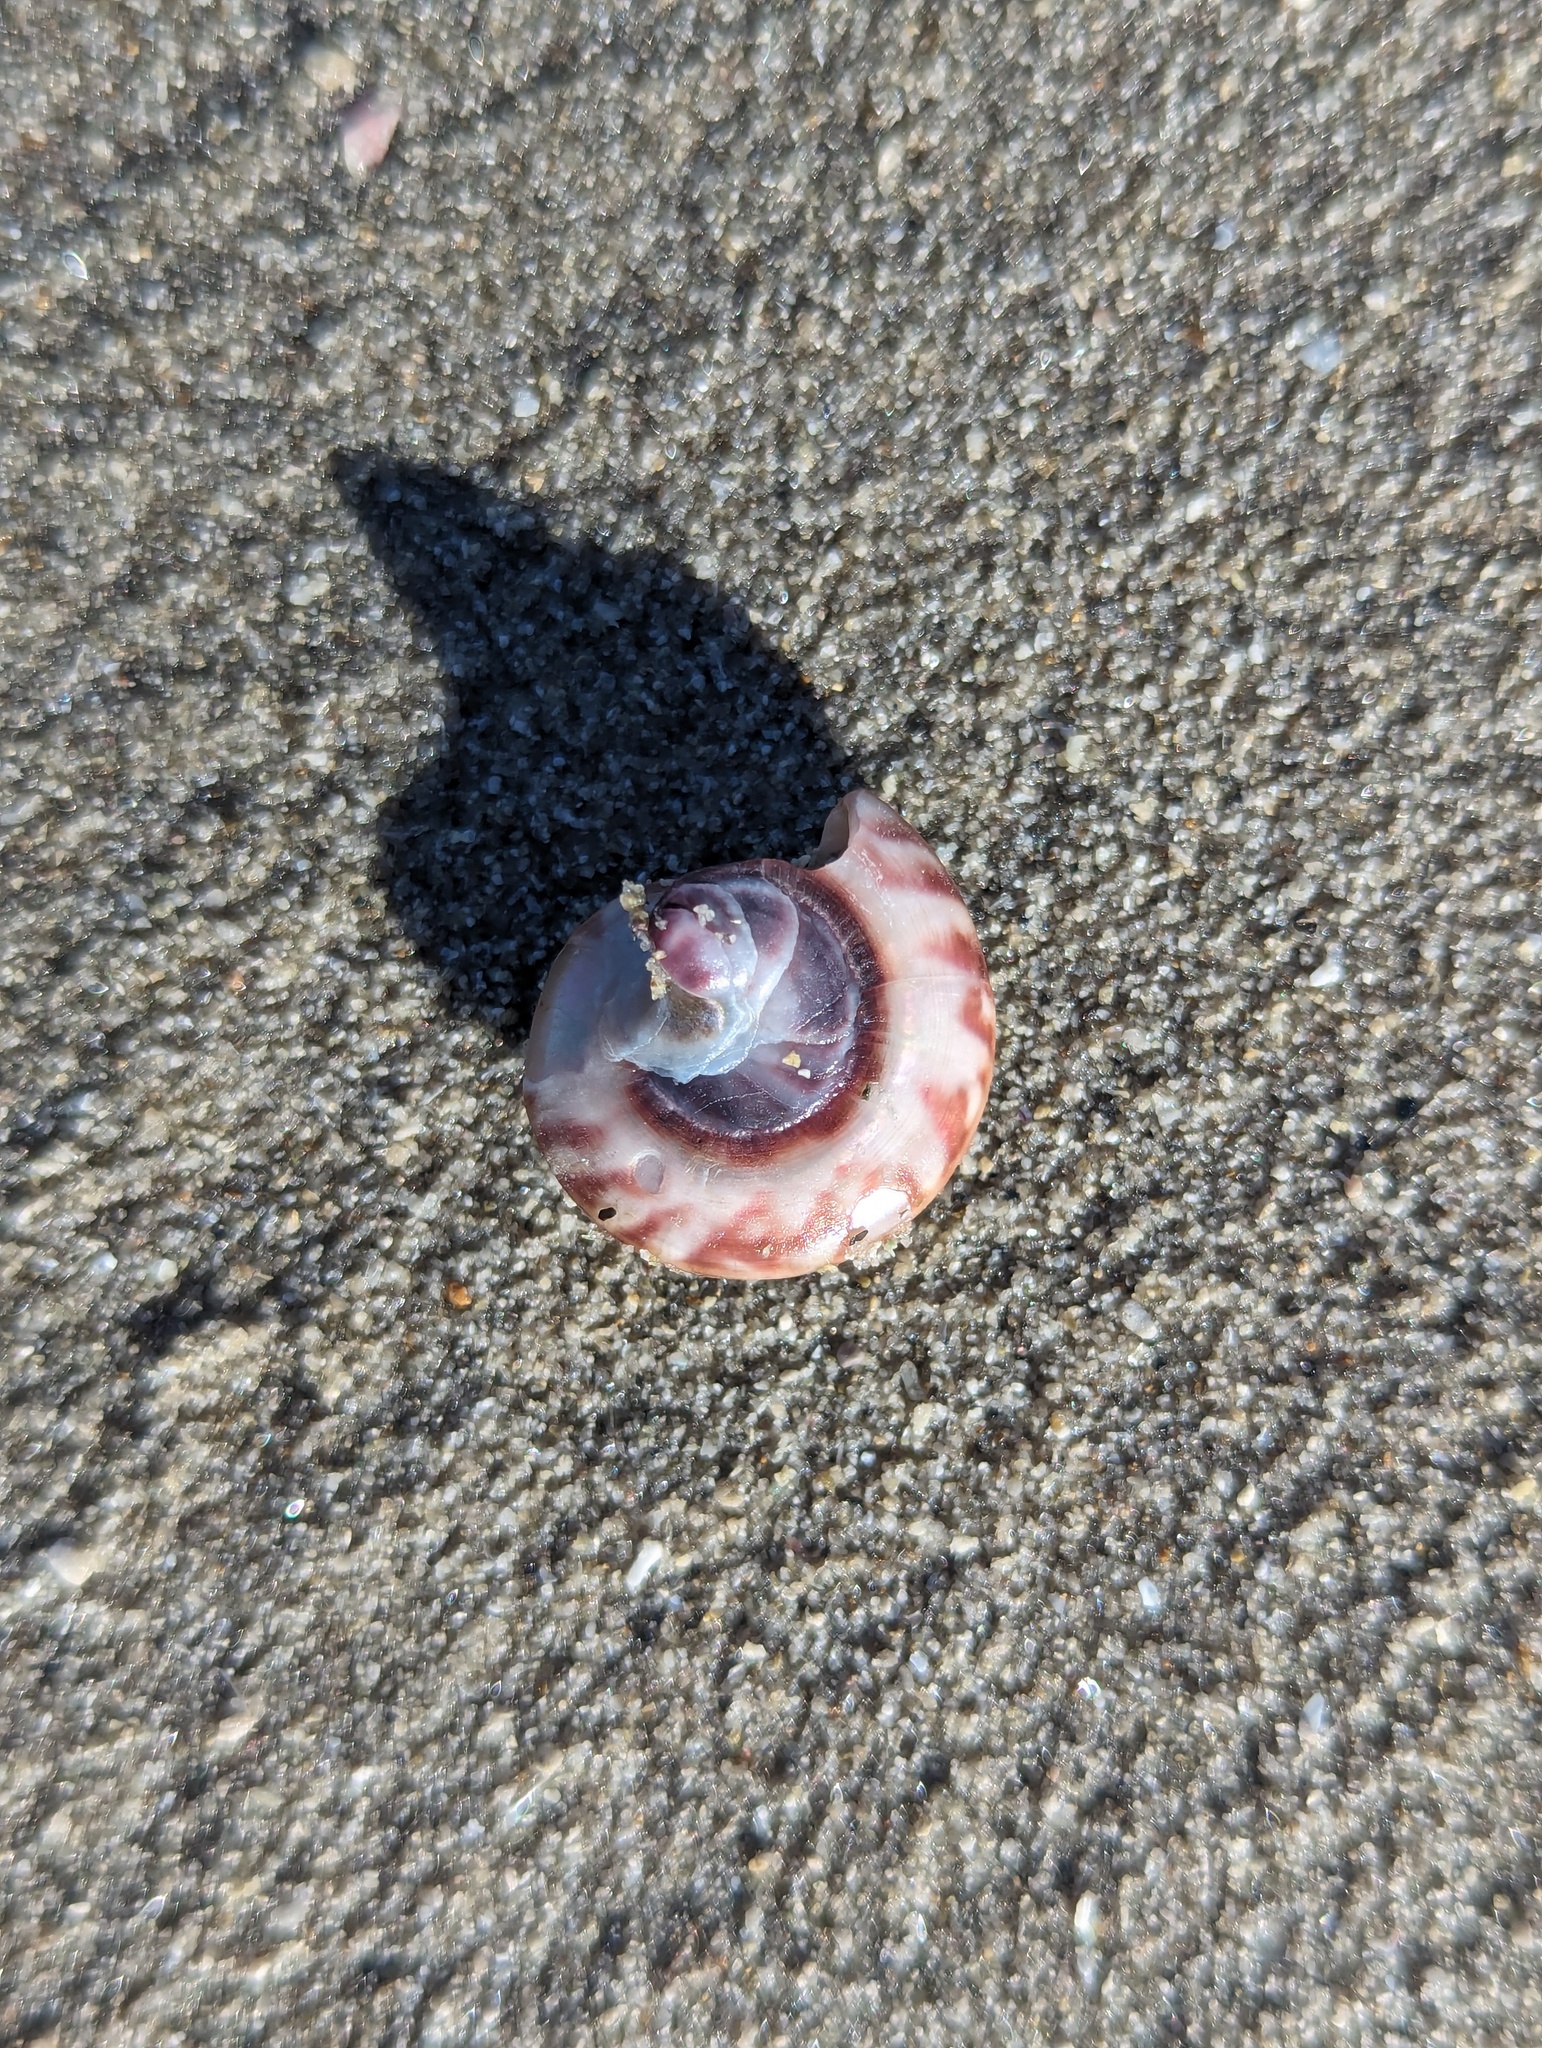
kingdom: Animalia
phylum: Mollusca
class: Gastropoda
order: Trochida
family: Trochidae
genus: Zethalia
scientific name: Zethalia zelandica
